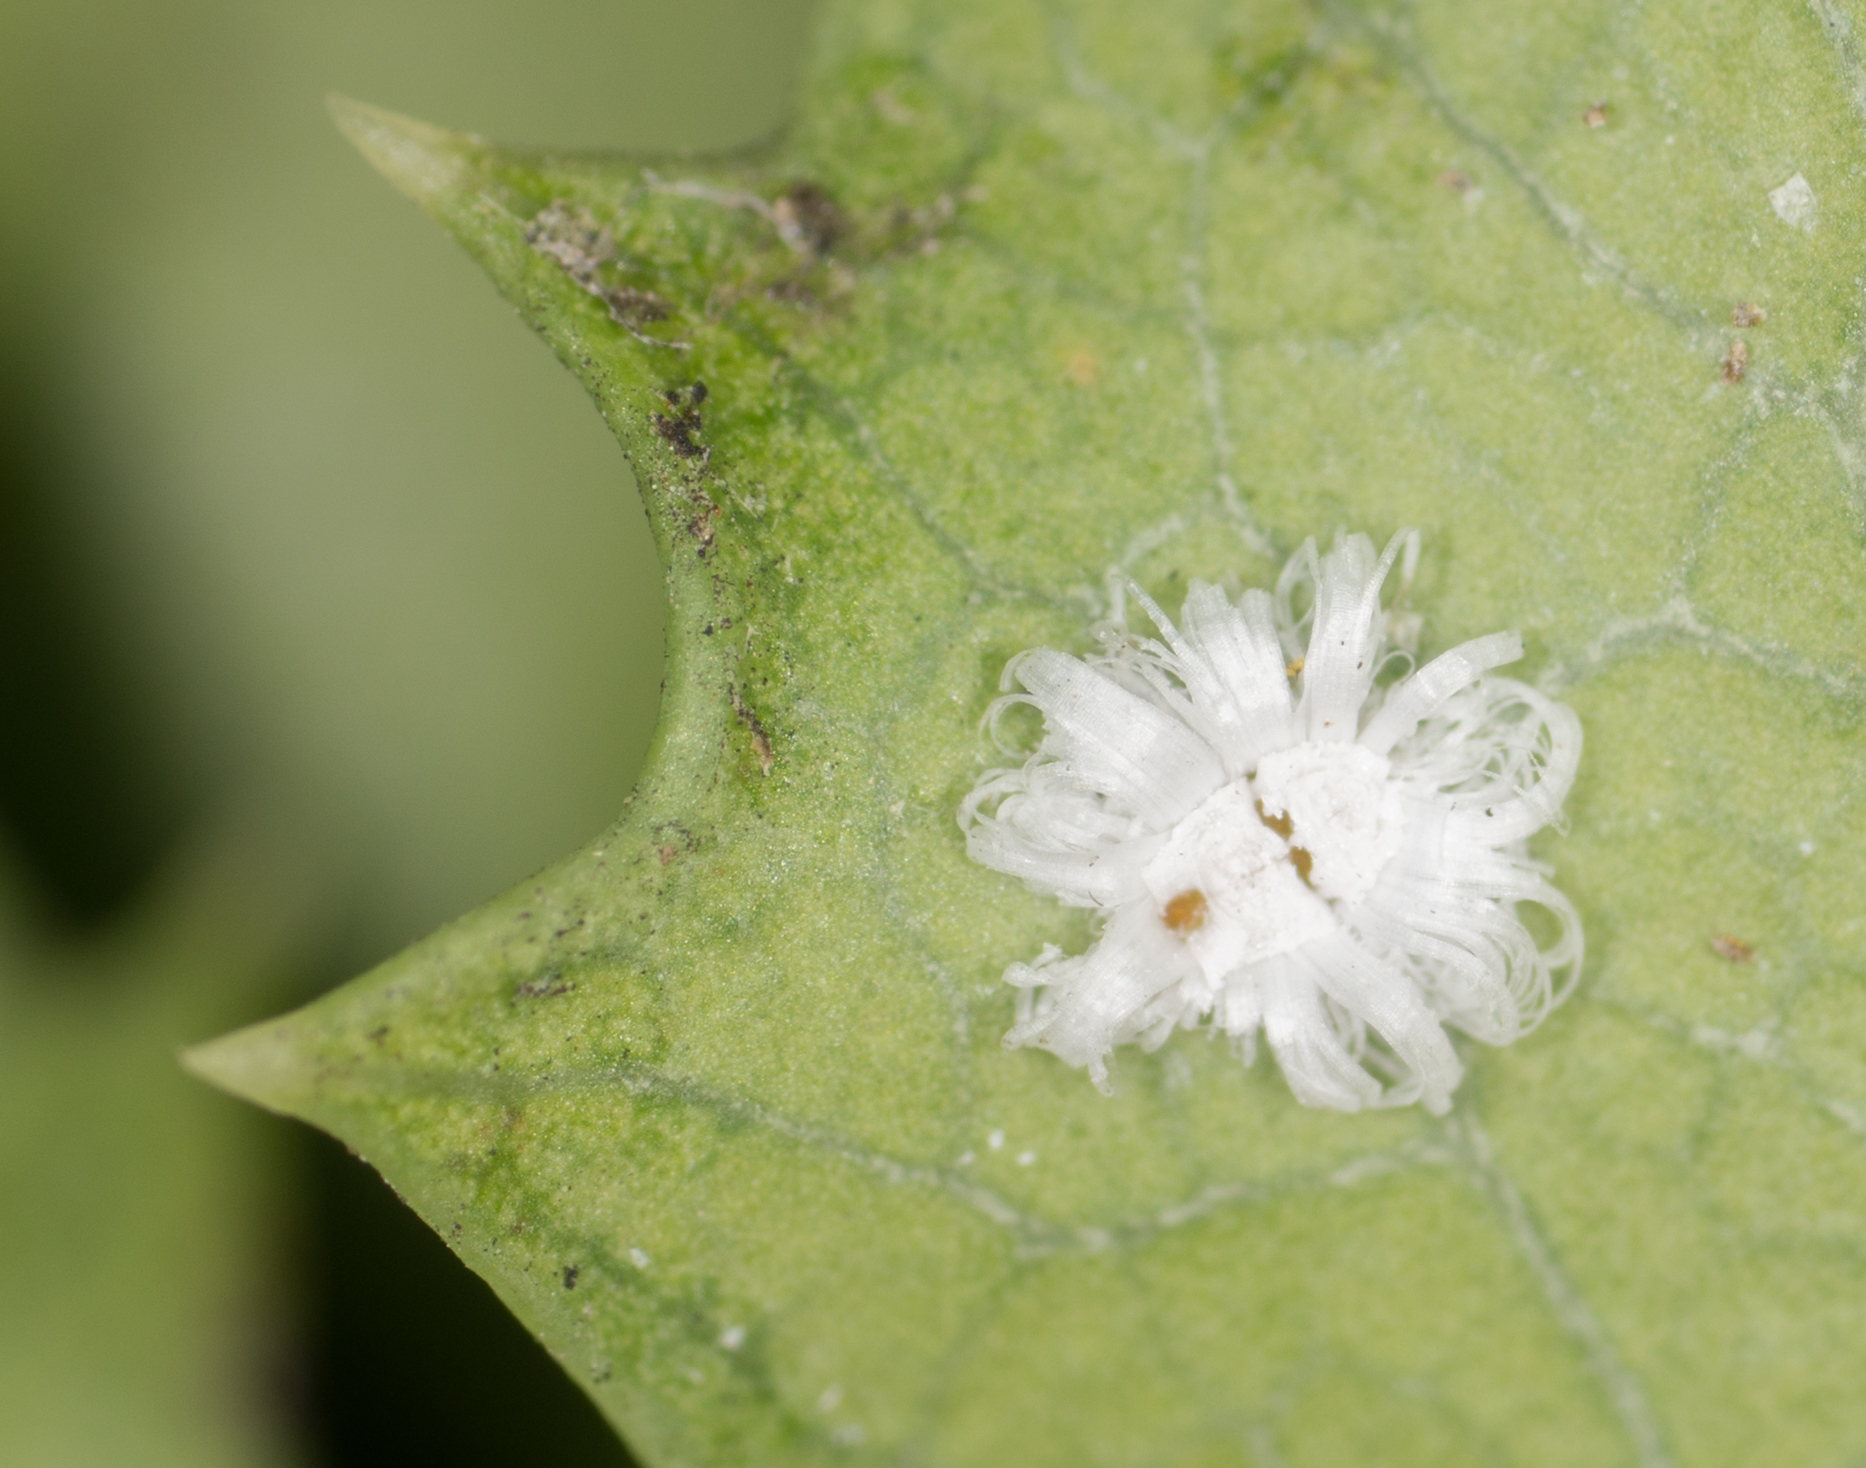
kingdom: Animalia
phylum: Arthropoda
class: Insecta
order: Hemiptera
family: Aleyrodidae
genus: Pealius
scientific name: Pealius kelloggi
